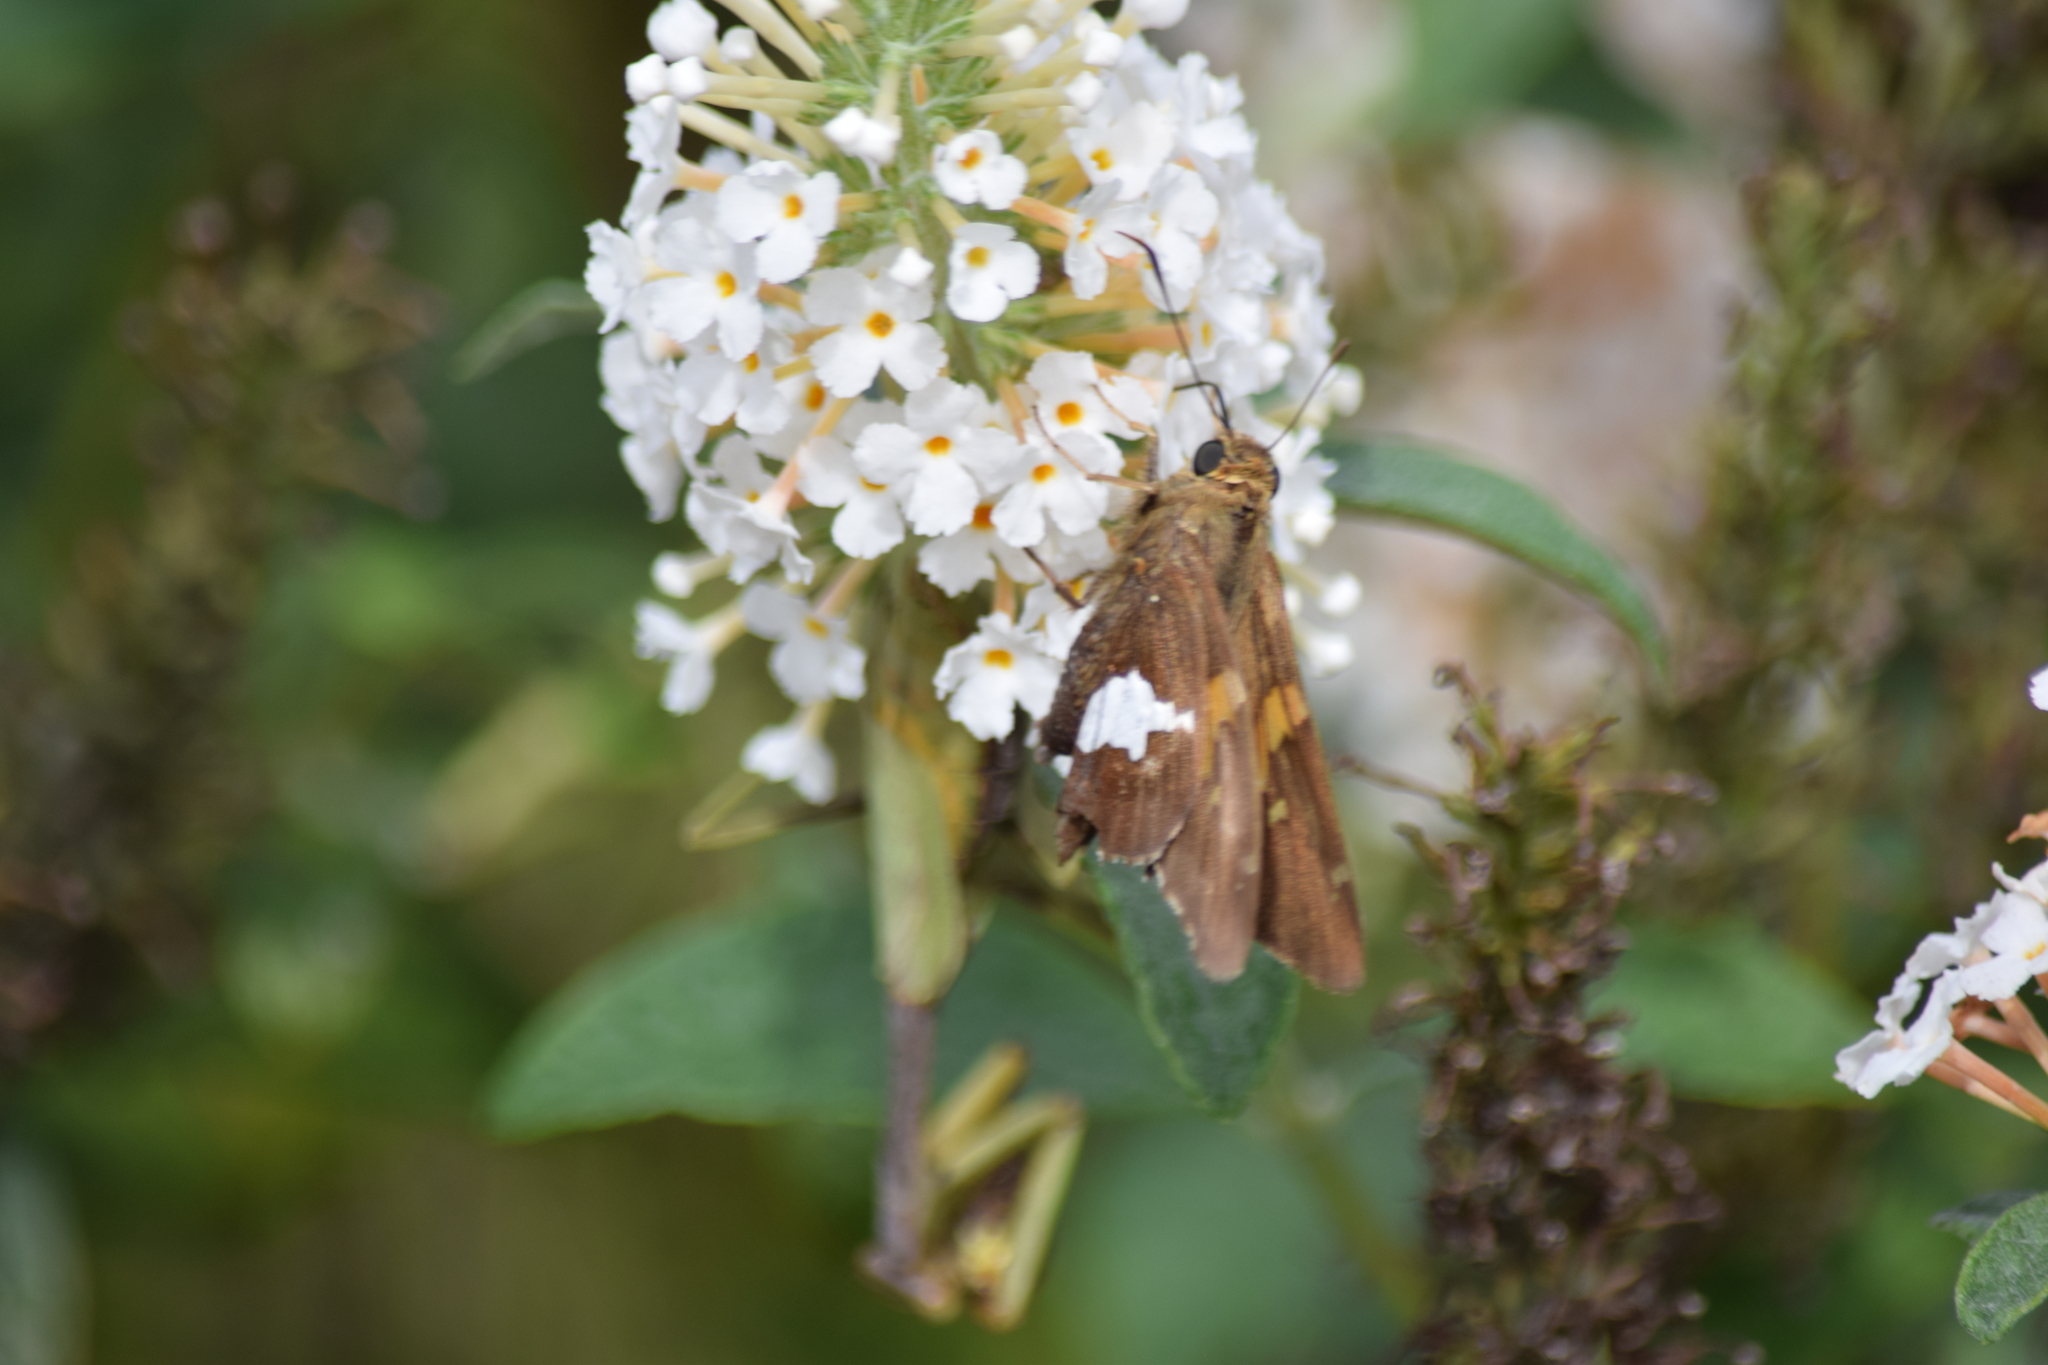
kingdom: Animalia
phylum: Arthropoda
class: Insecta
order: Lepidoptera
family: Hesperiidae
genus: Epargyreus
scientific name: Epargyreus clarus
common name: Silver-spotted skipper
